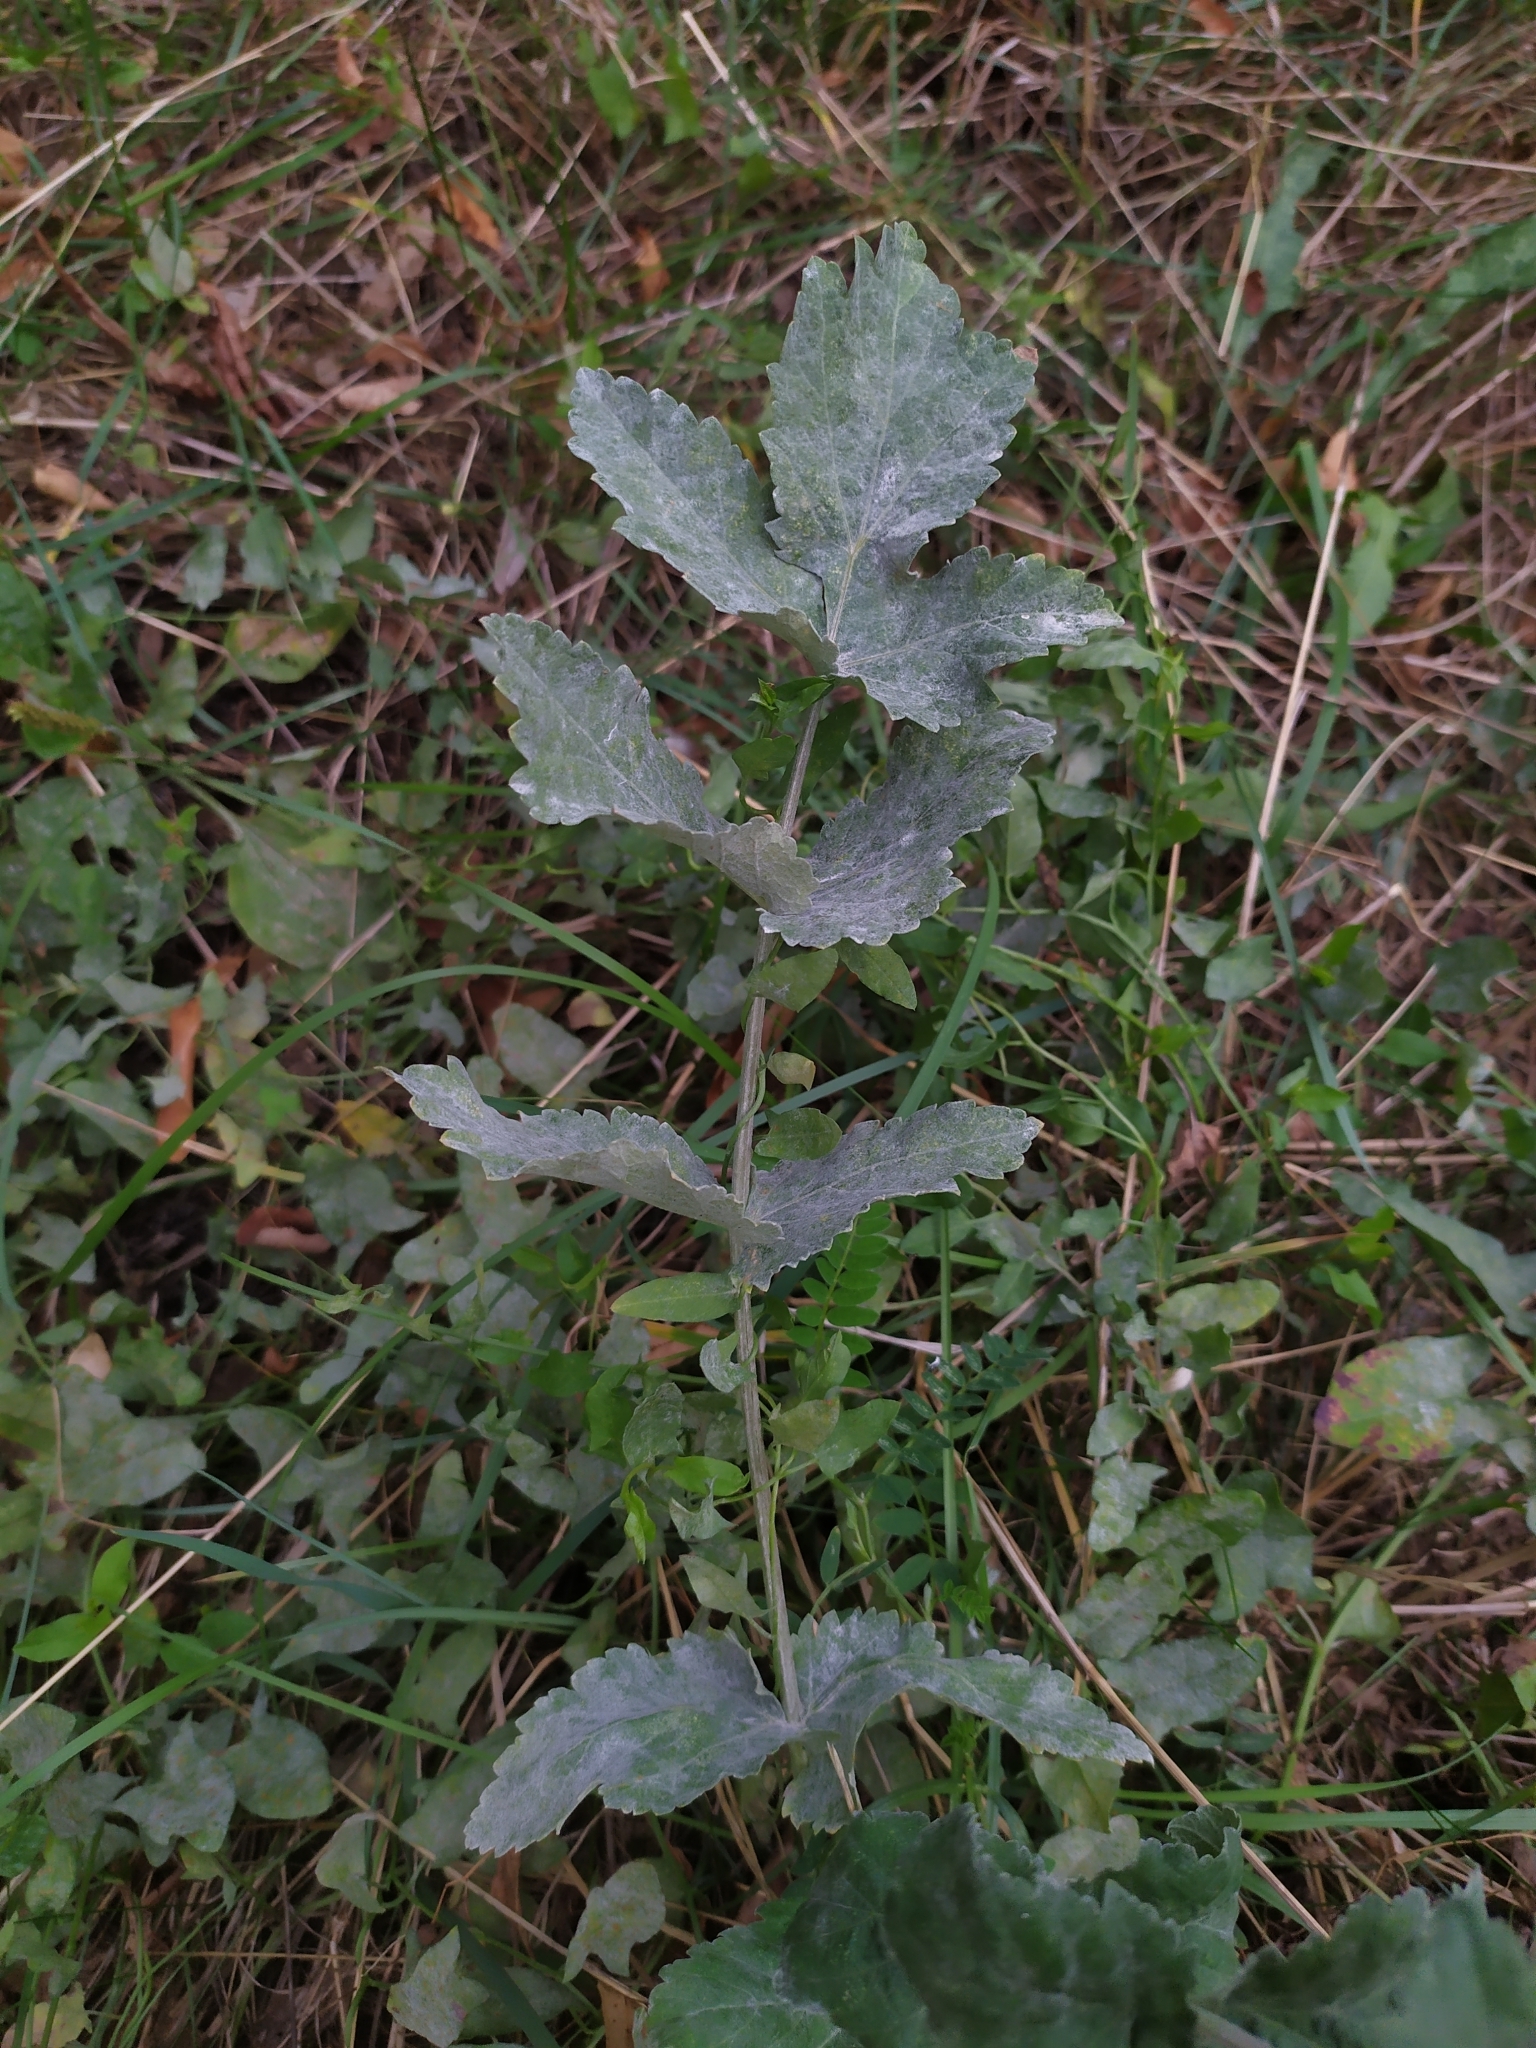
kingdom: Fungi
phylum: Ascomycota
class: Leotiomycetes
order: Helotiales
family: Erysiphaceae
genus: Erysiphe
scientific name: Erysiphe heraclei
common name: Umbellifer mildew
